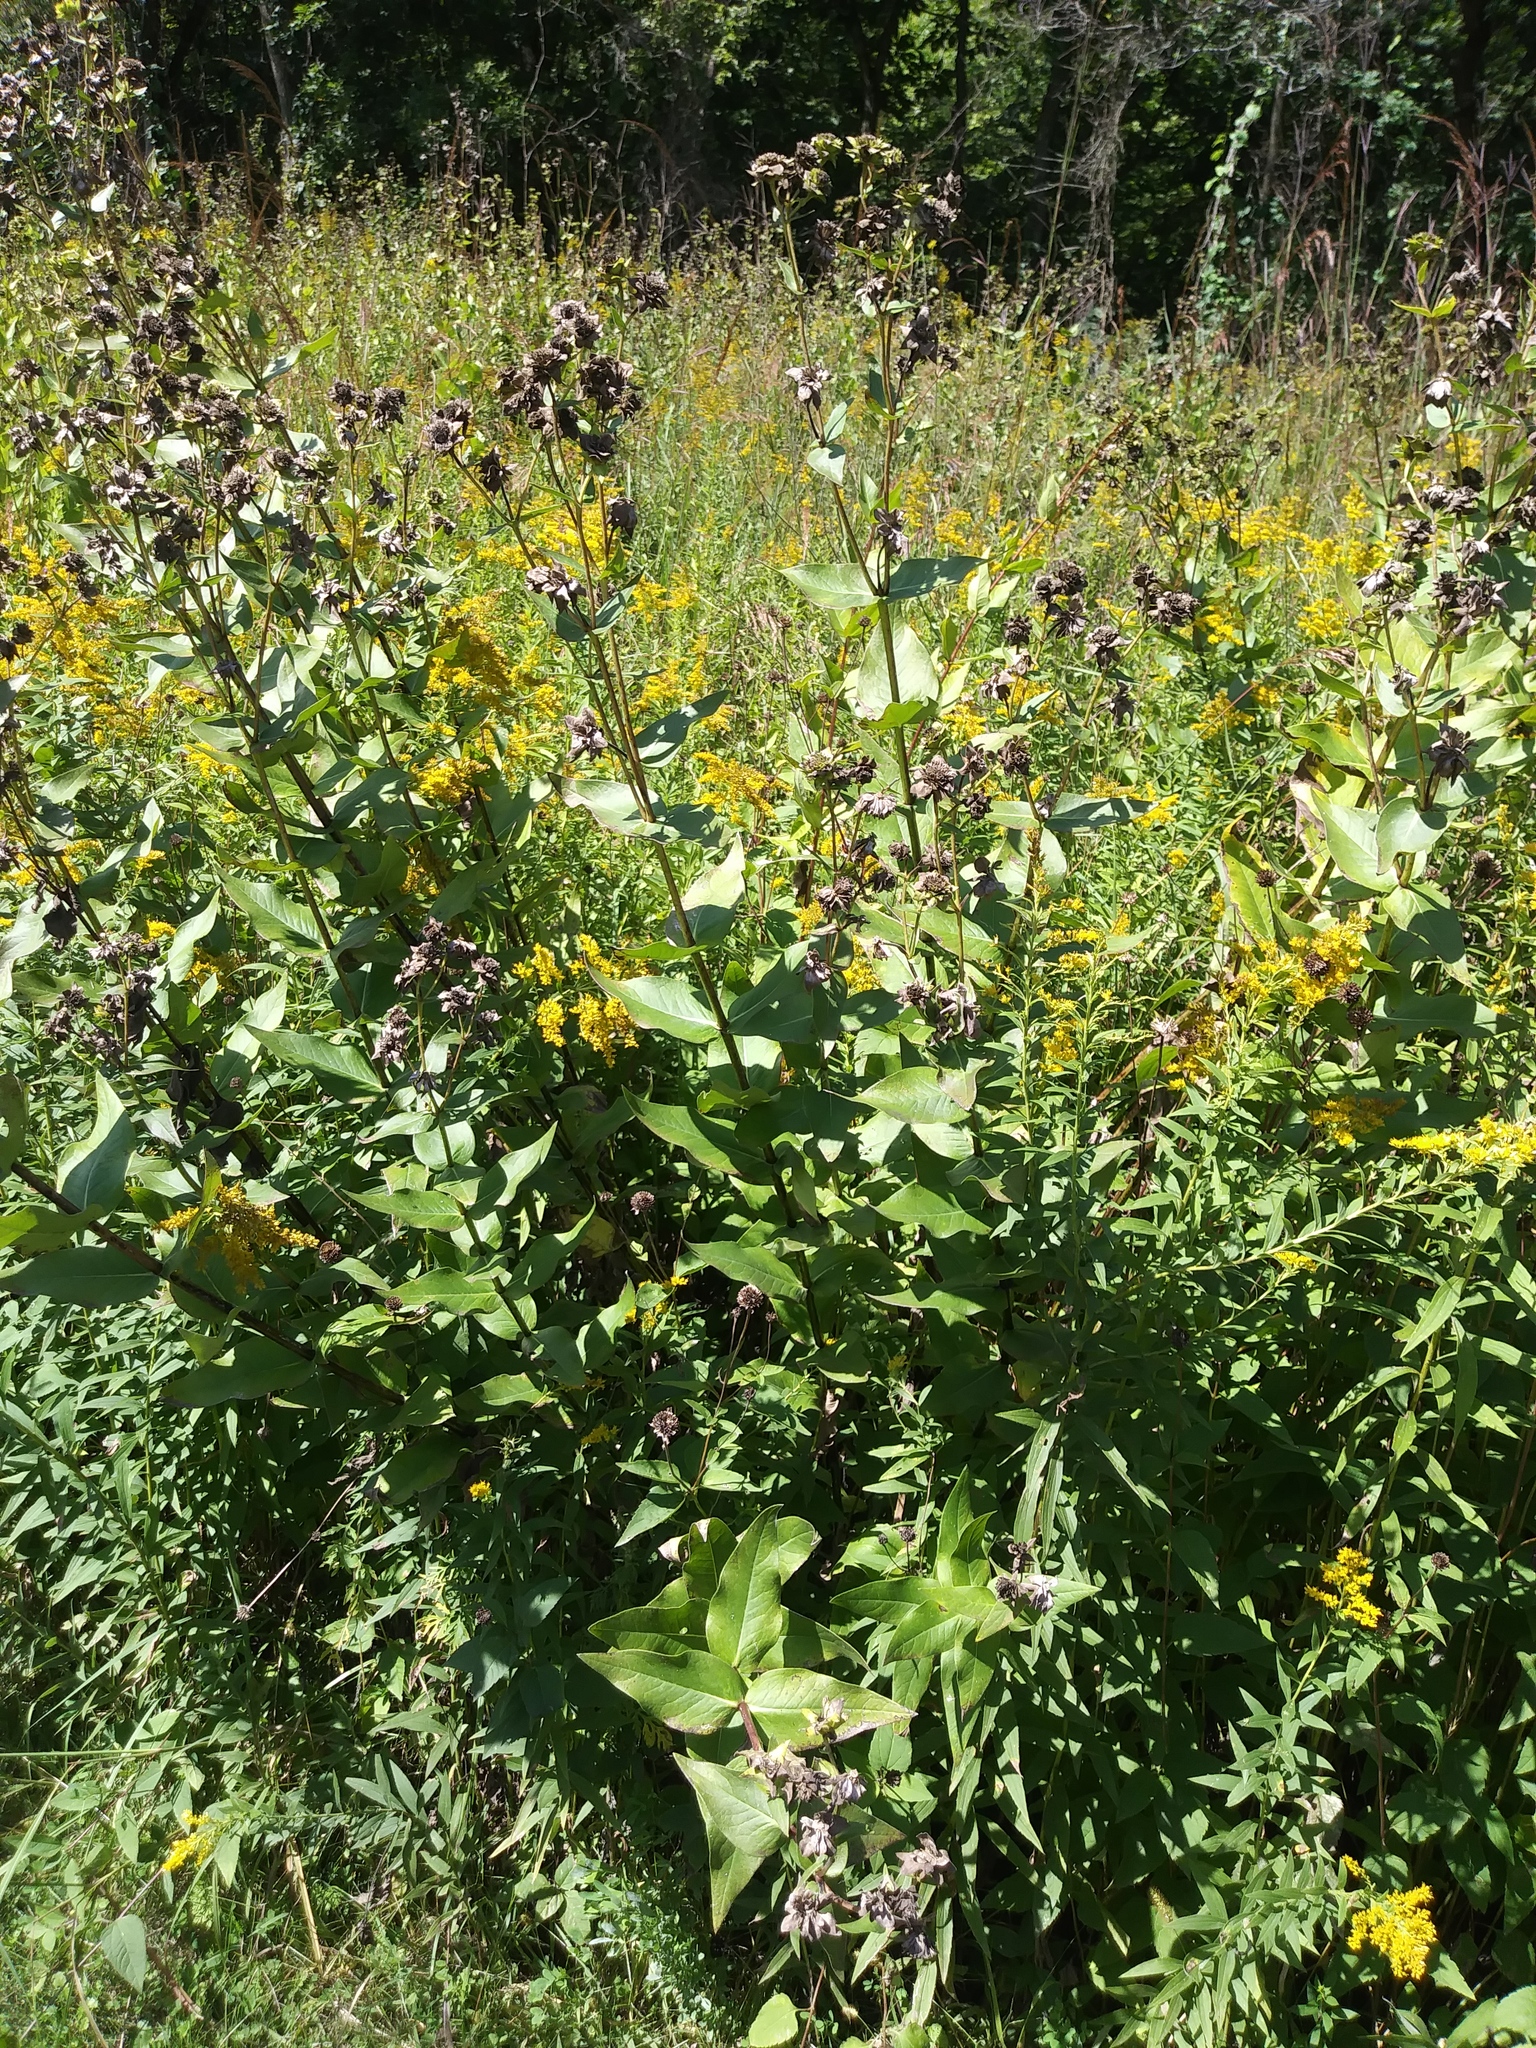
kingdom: Plantae
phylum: Tracheophyta
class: Magnoliopsida
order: Asterales
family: Asteraceae
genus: Silphium
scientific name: Silphium integrifolium
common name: Whole-leaf rosinweed
